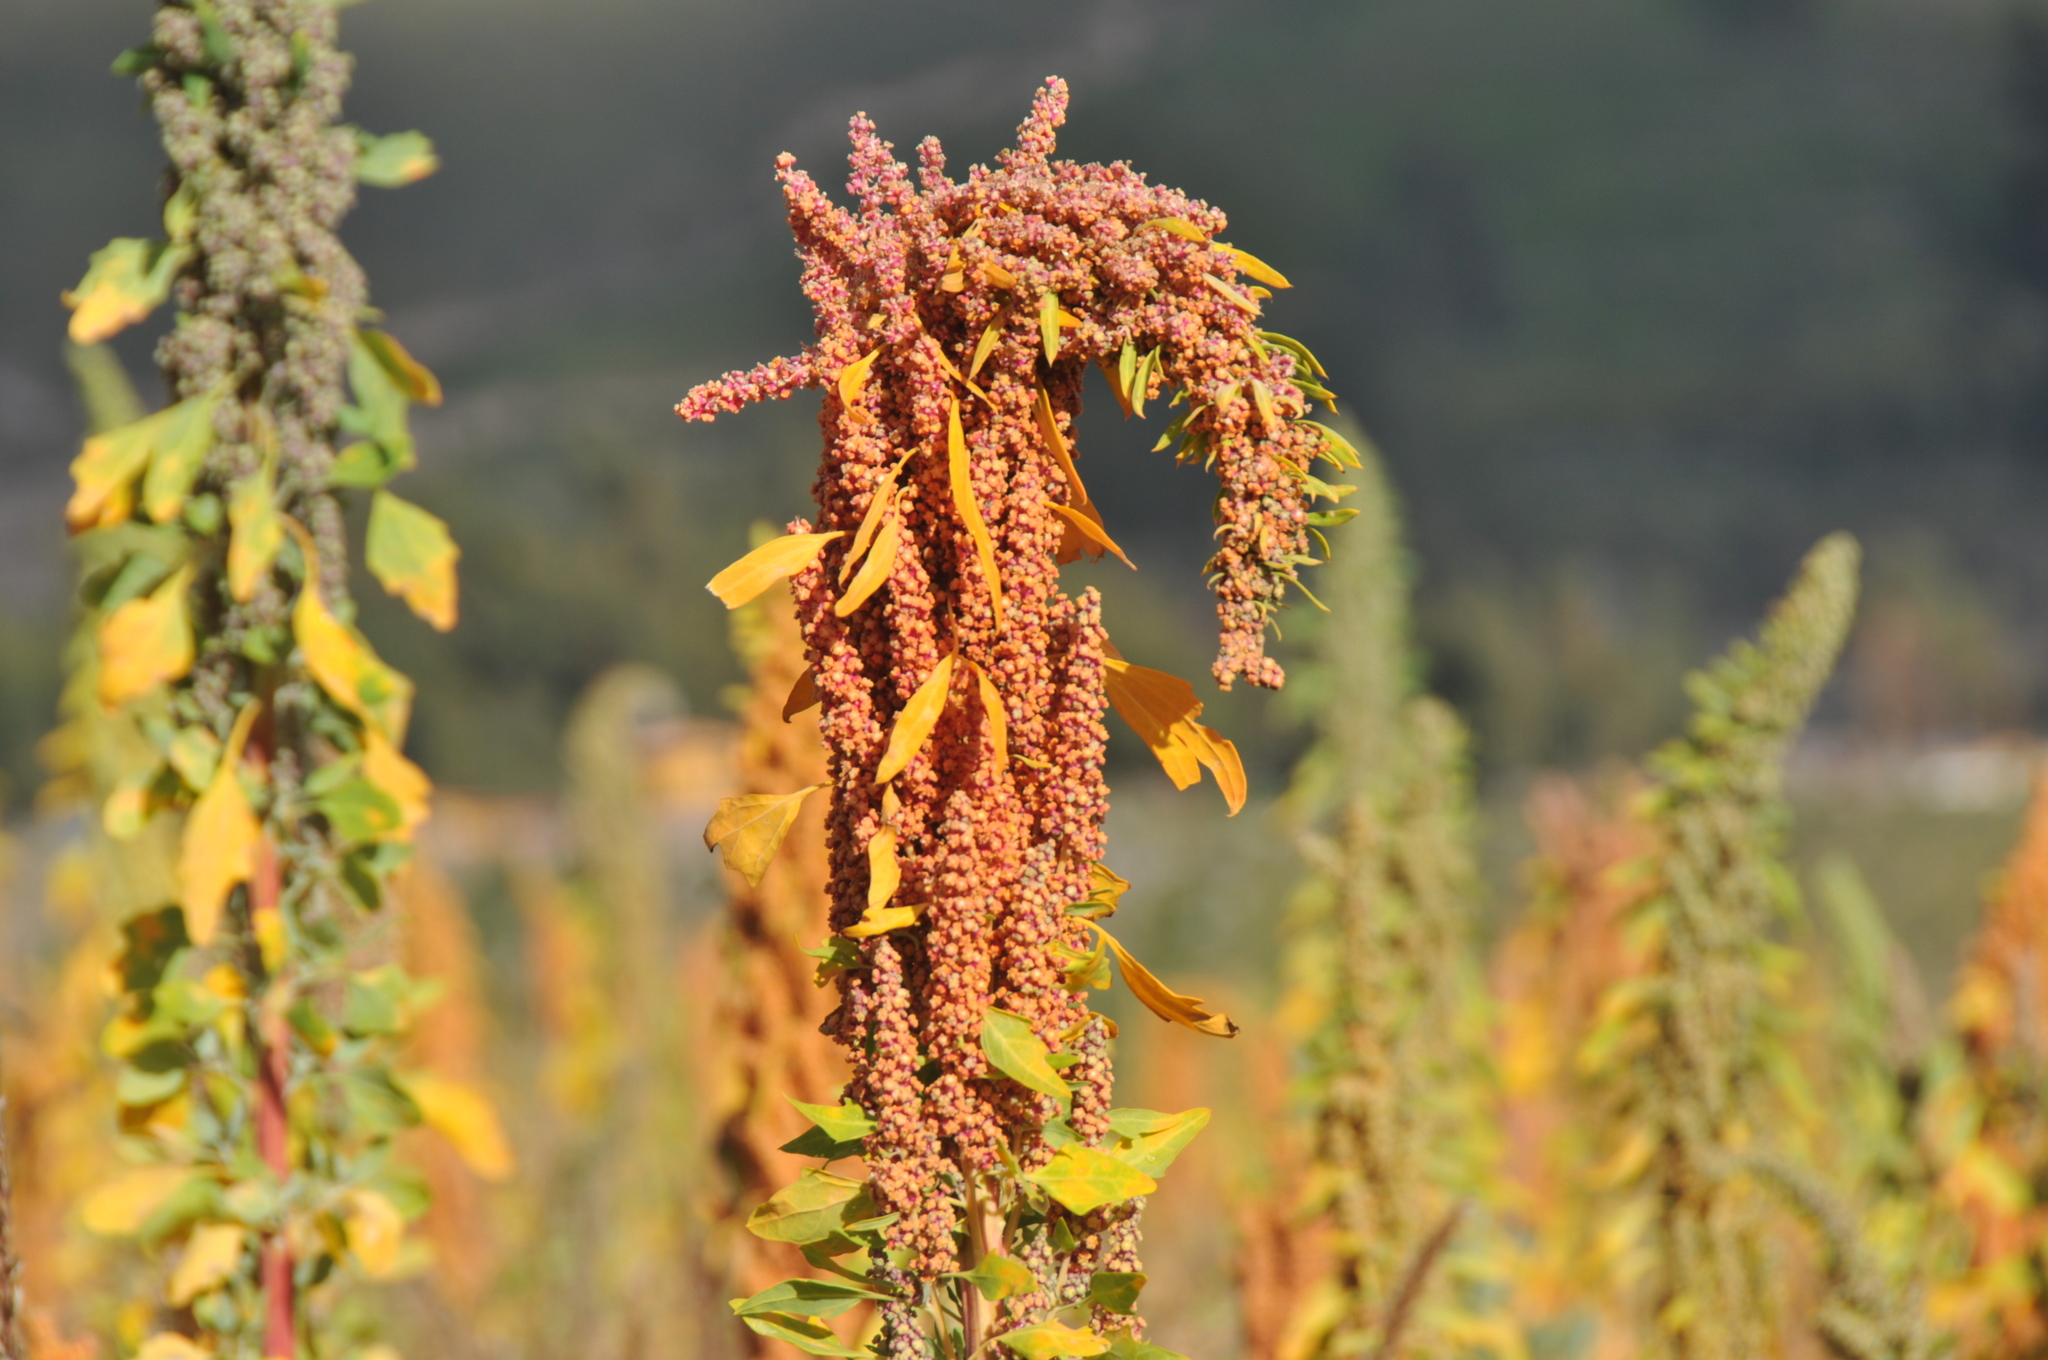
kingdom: Plantae
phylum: Tracheophyta
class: Magnoliopsida
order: Caryophyllales
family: Amaranthaceae
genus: Chenopodium
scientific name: Chenopodium quinoa
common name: Quinoa
